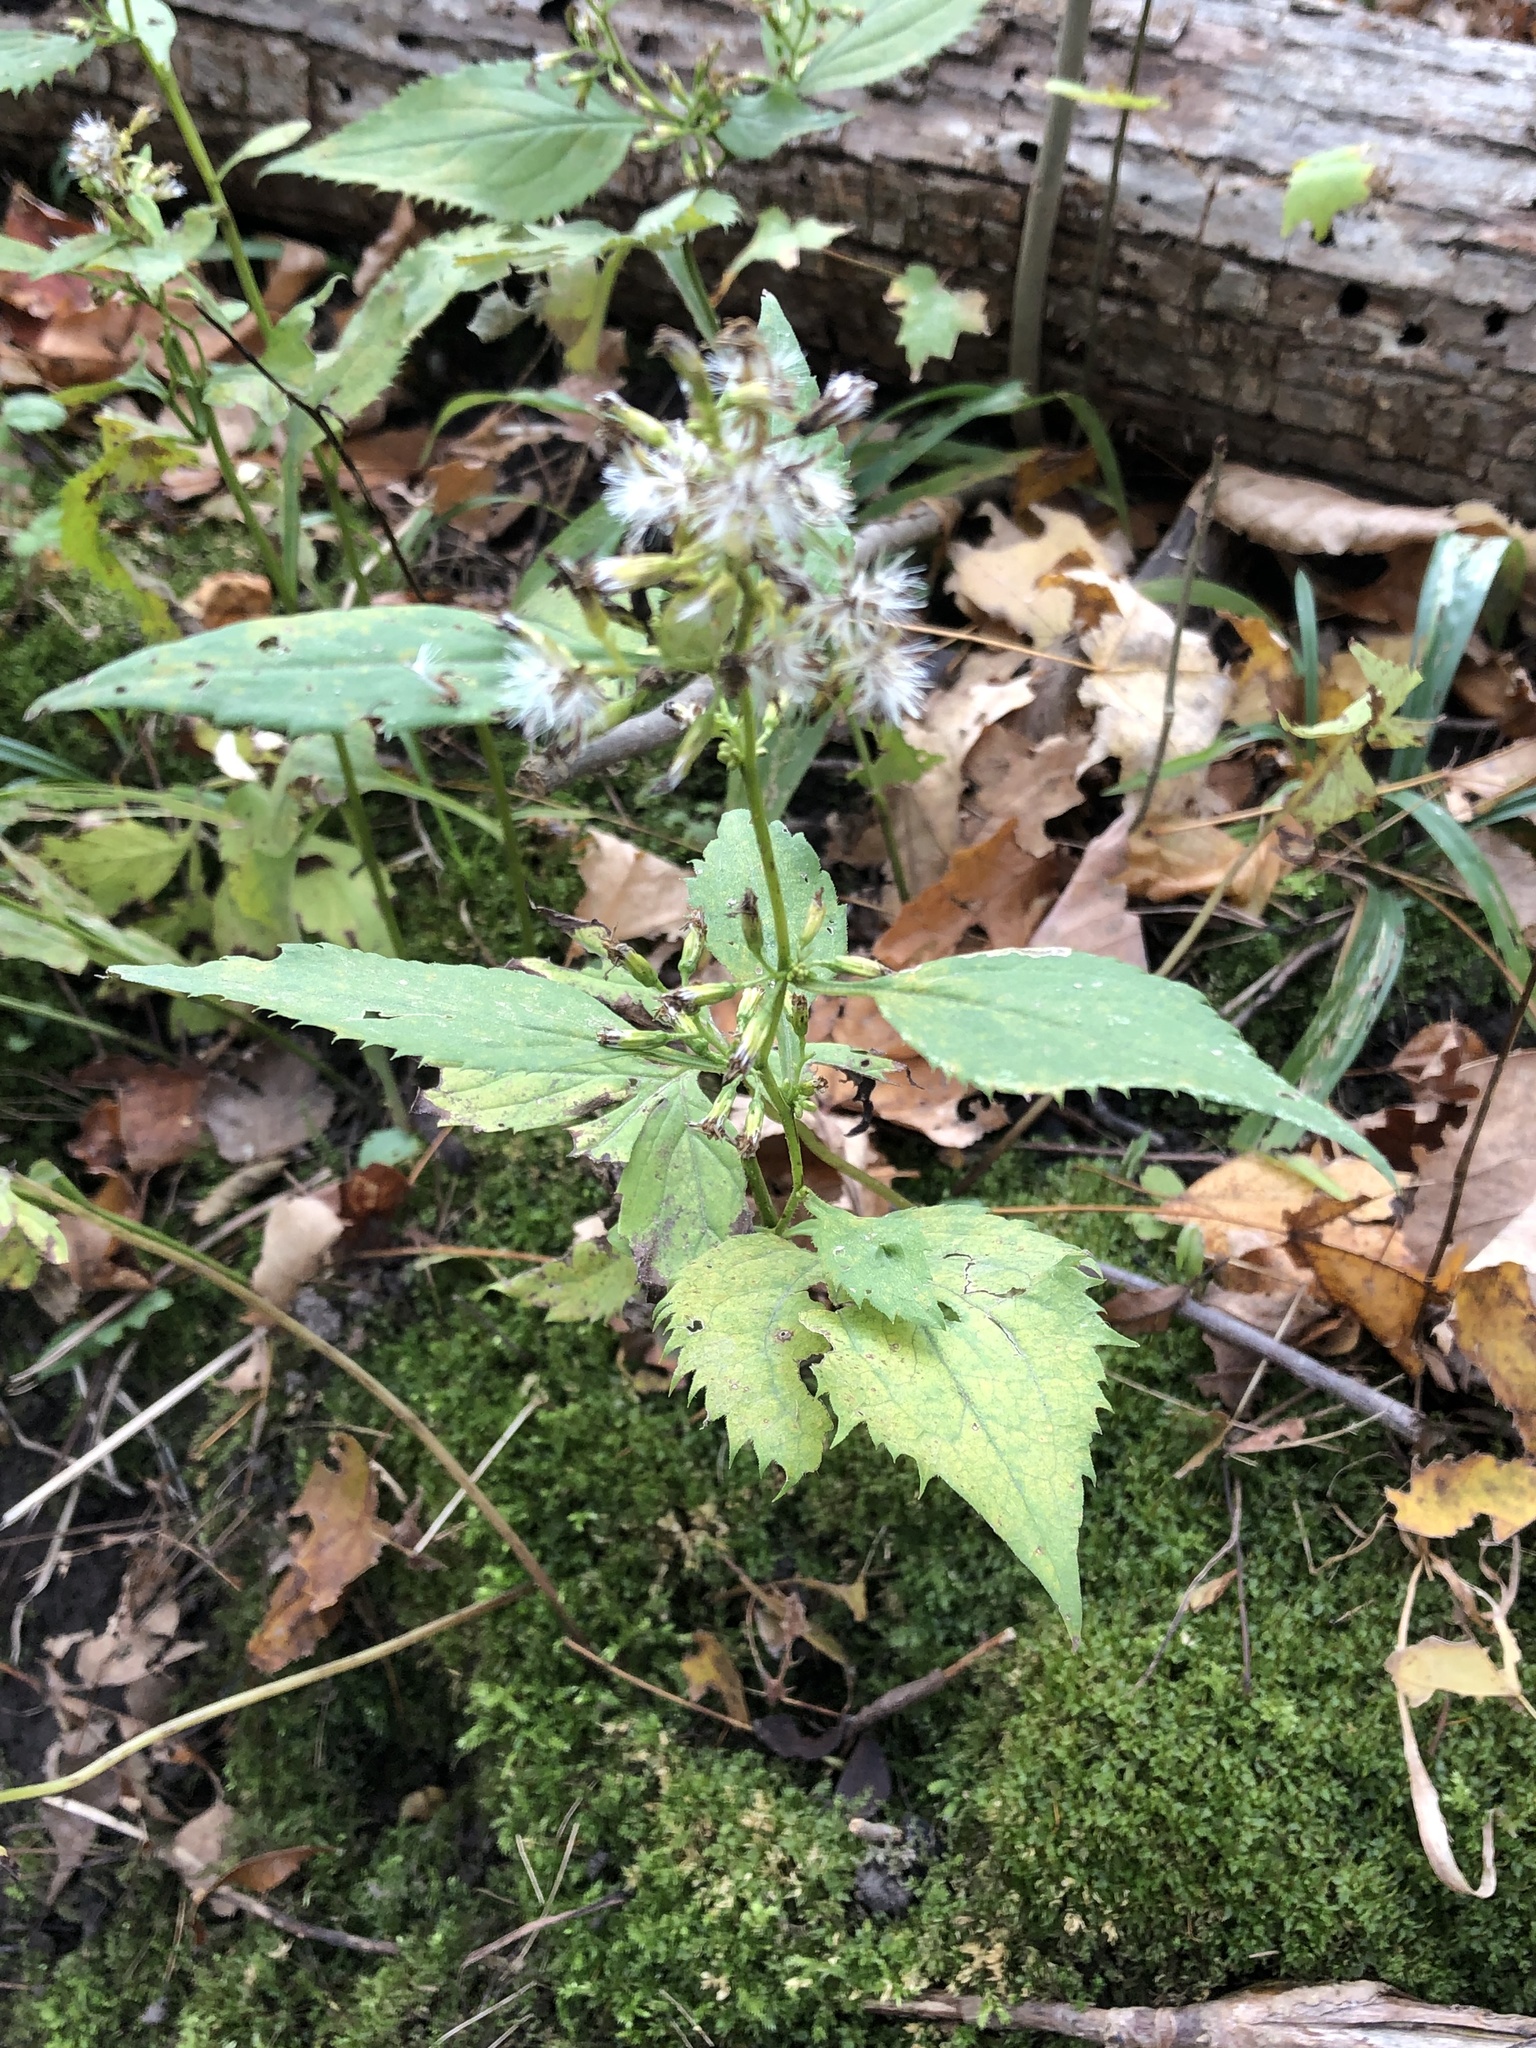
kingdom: Plantae
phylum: Tracheophyta
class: Magnoliopsida
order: Asterales
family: Asteraceae
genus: Solidago
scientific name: Solidago flexicaulis
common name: Zig-zag goldenrod
